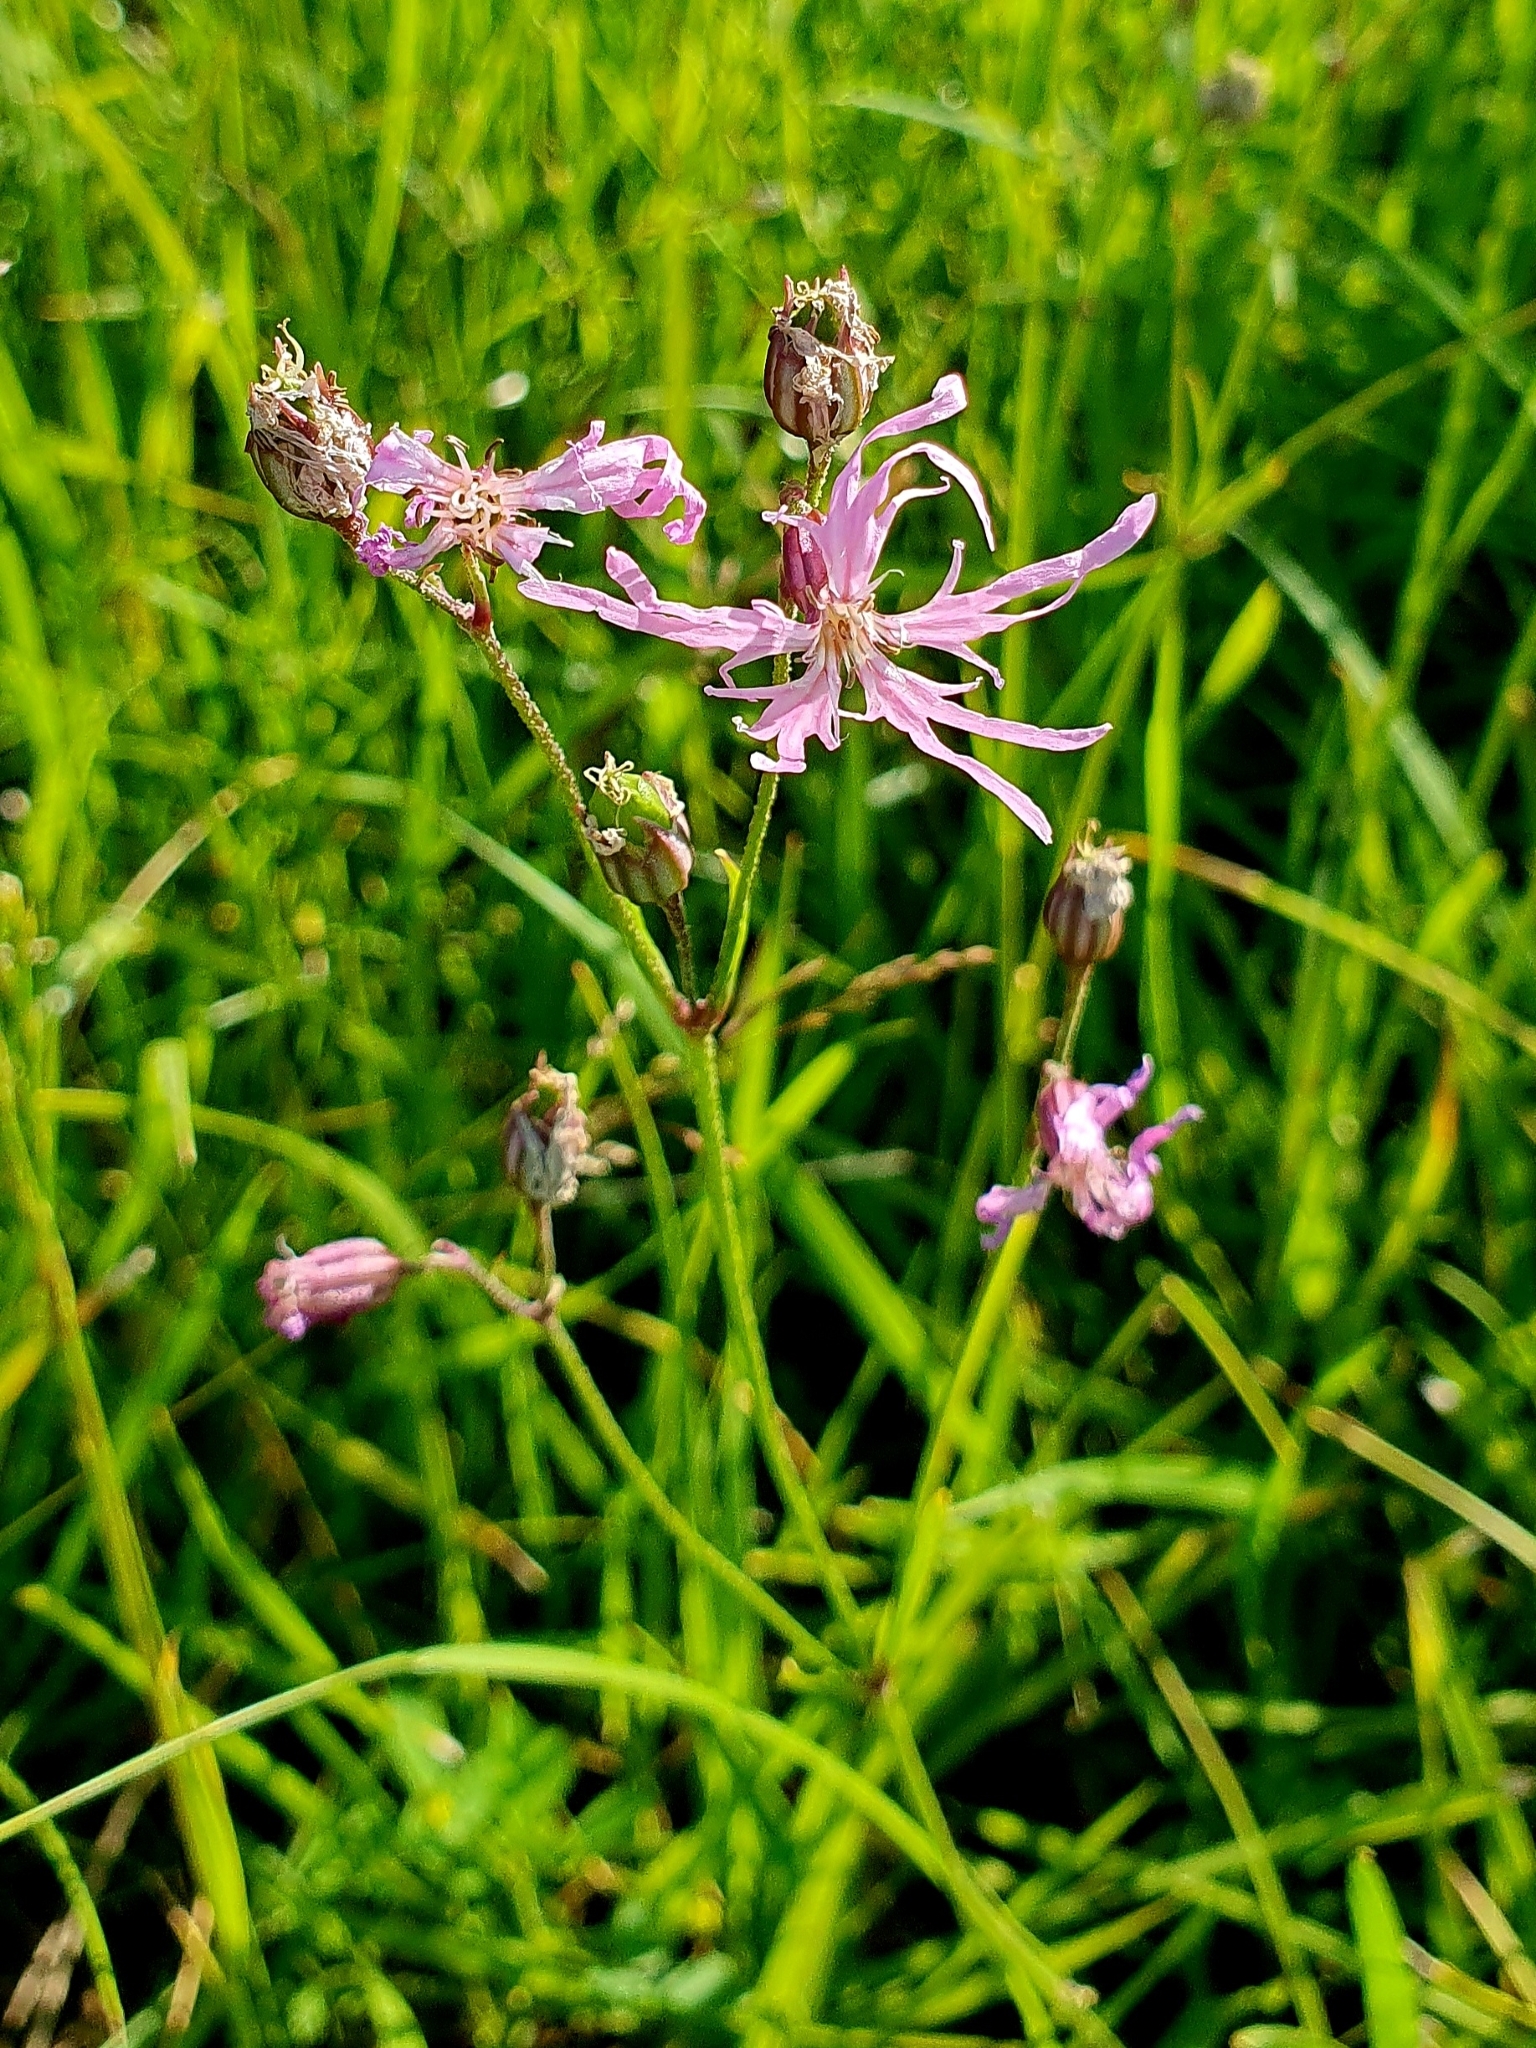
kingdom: Plantae
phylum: Tracheophyta
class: Magnoliopsida
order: Caryophyllales
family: Caryophyllaceae
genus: Silene
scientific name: Silene flos-cuculi
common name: Ragged-robin
